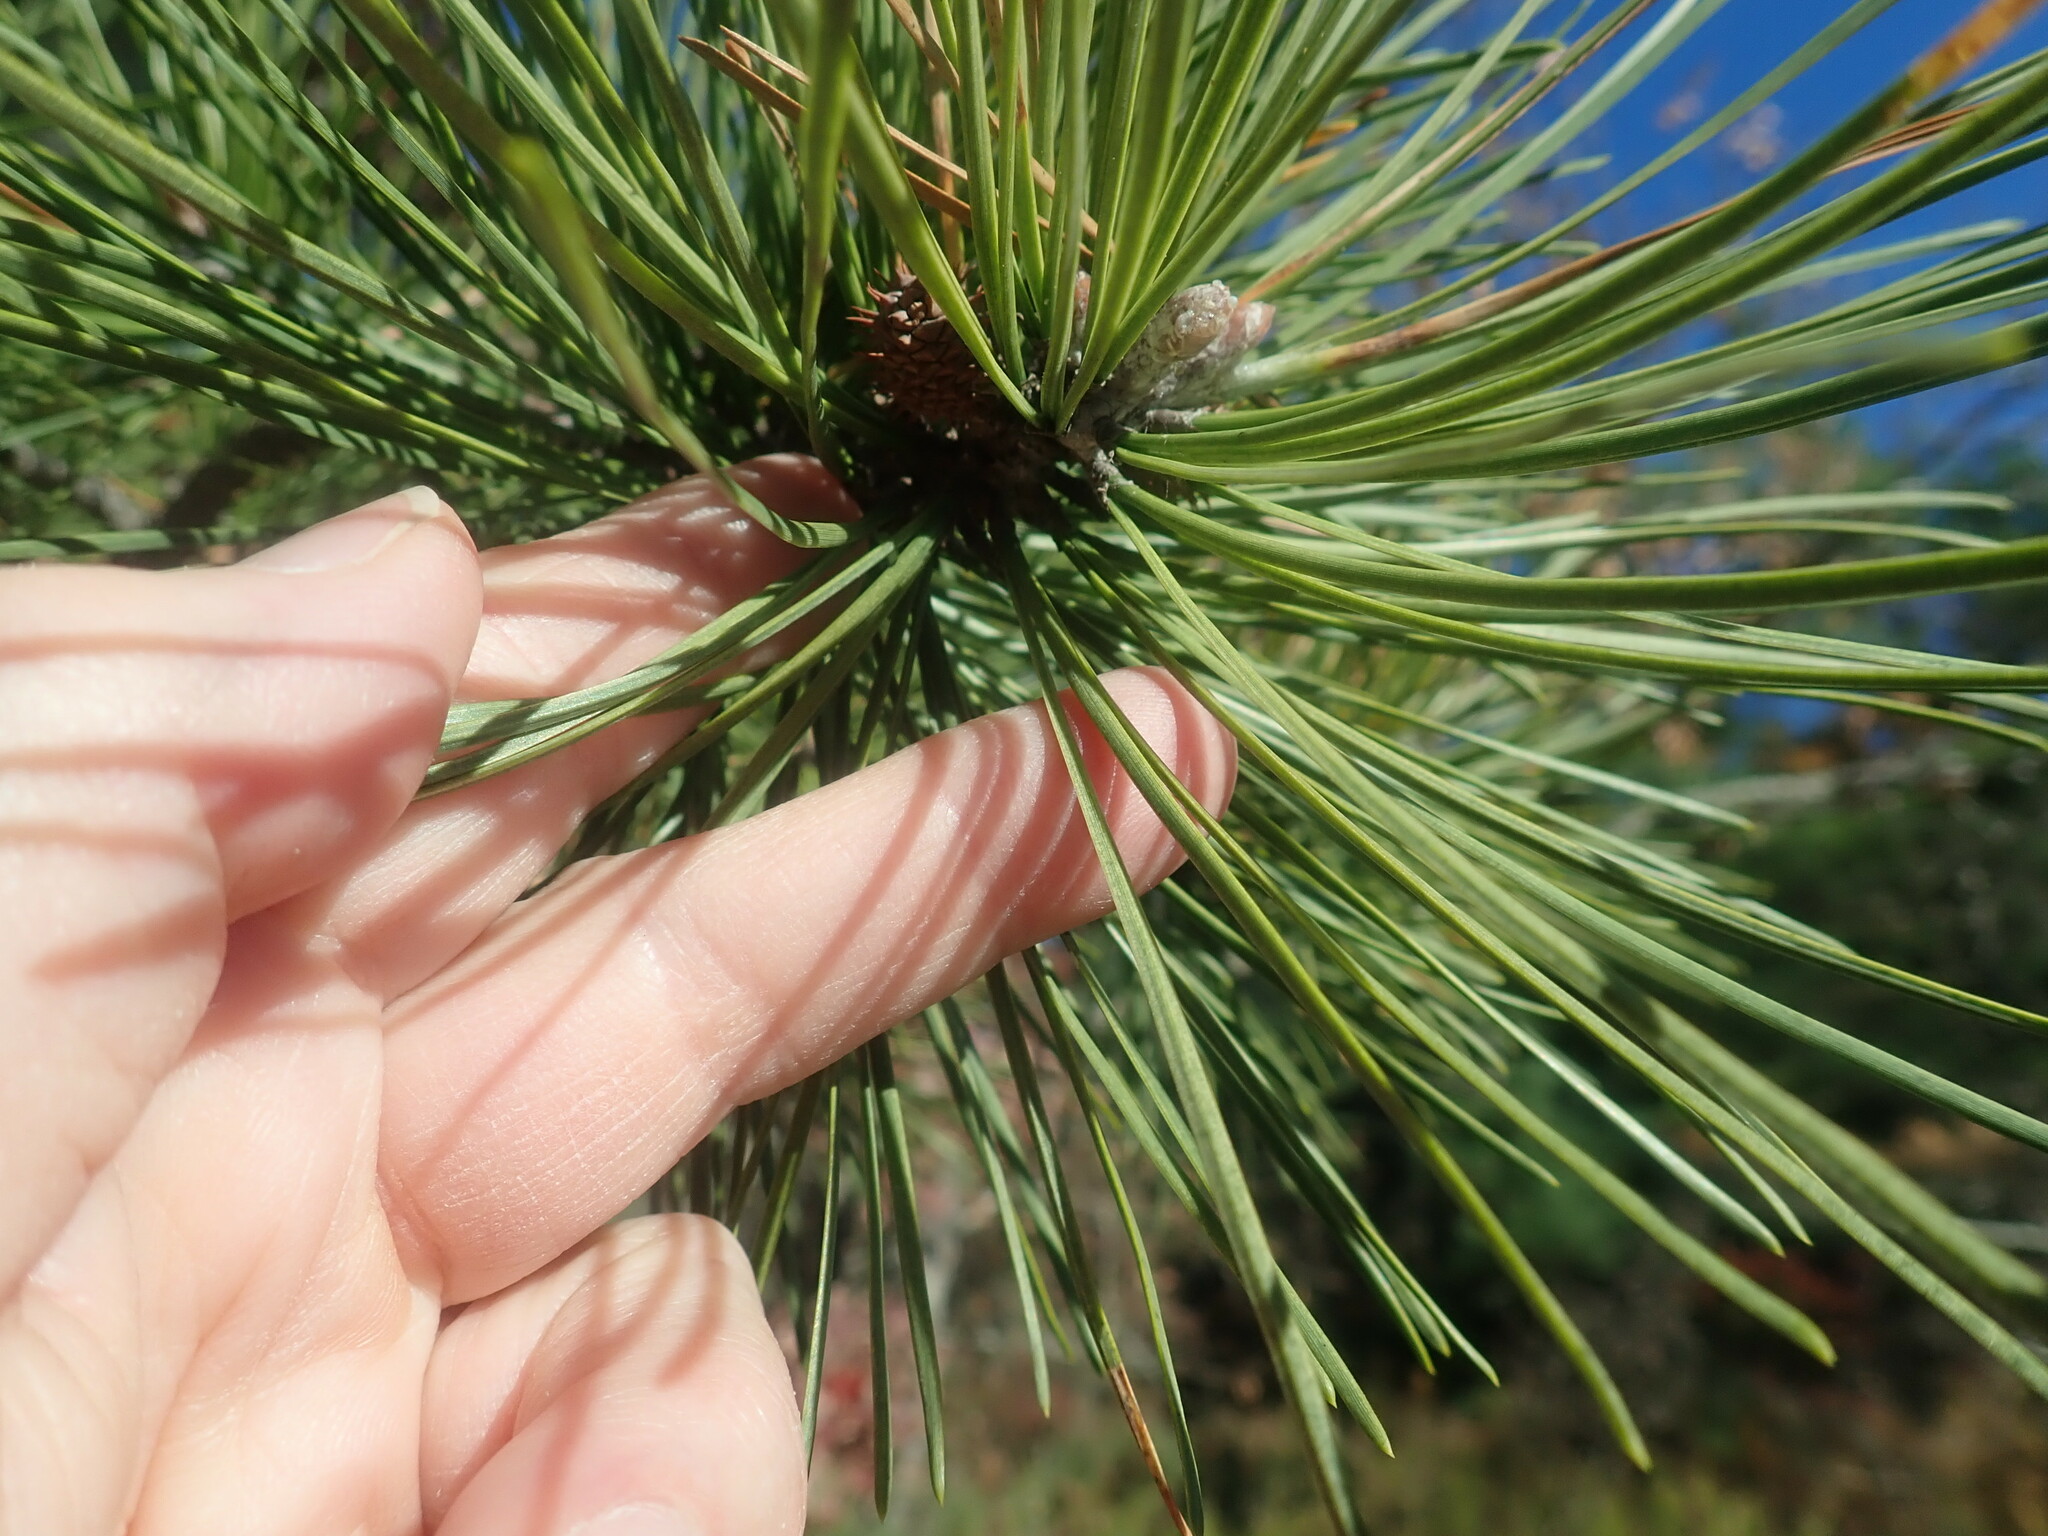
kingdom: Plantae
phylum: Tracheophyta
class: Pinopsida
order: Pinales
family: Pinaceae
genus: Pinus
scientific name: Pinus rigida
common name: Pitch pine
